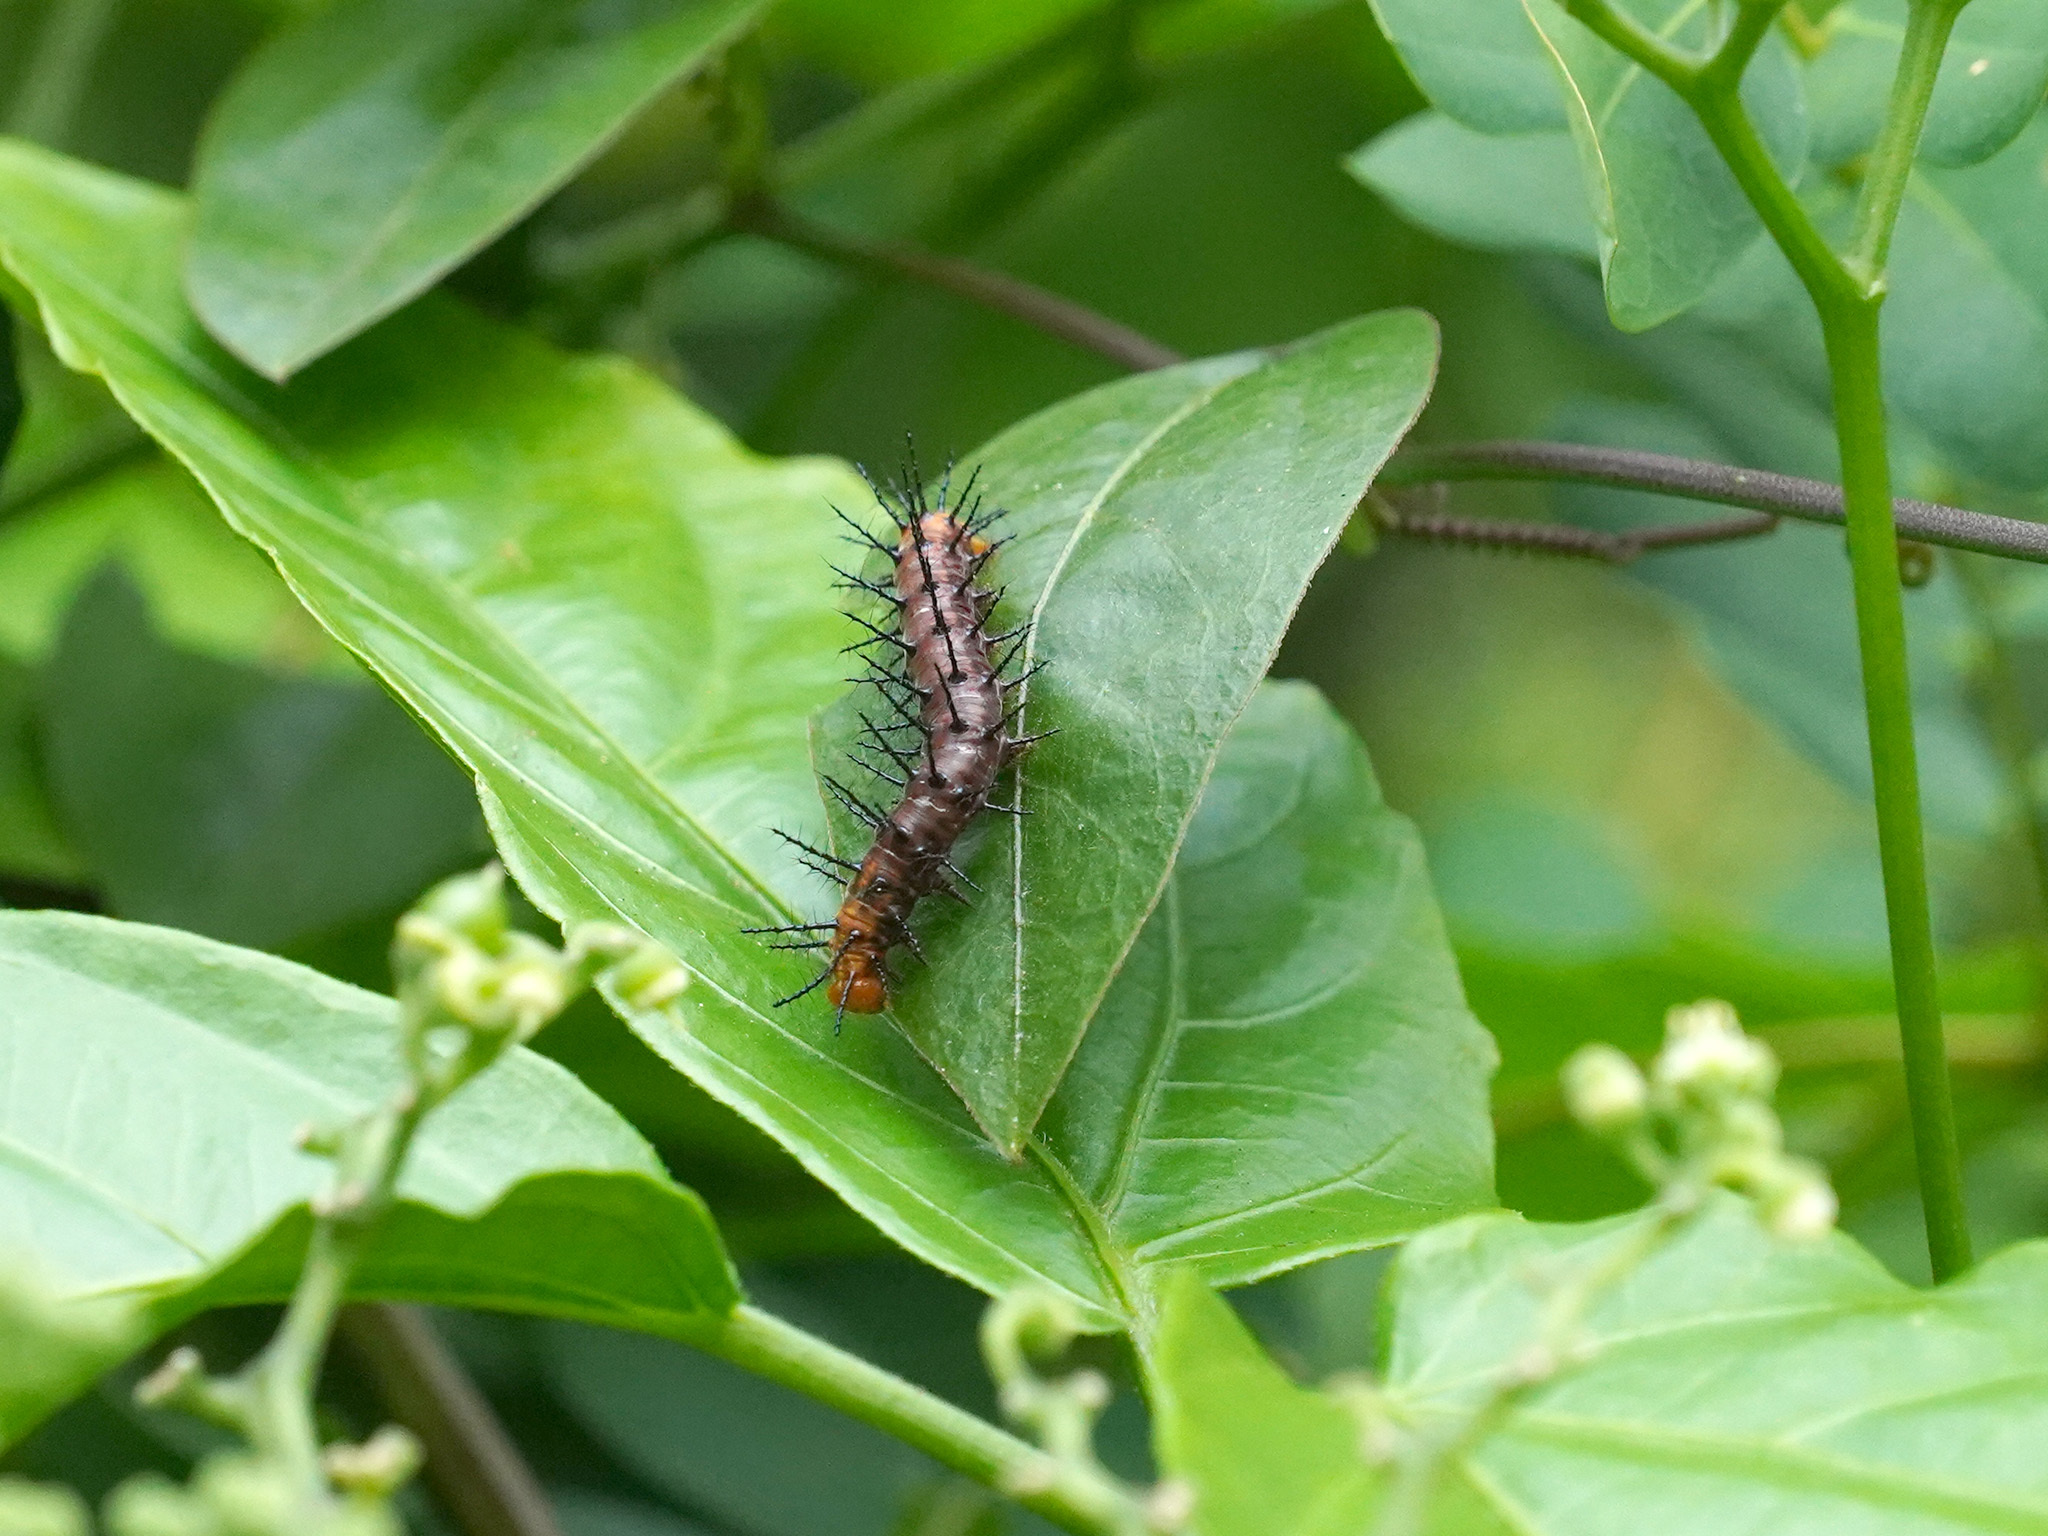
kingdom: Animalia
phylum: Arthropoda
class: Insecta
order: Lepidoptera
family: Nymphalidae
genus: Acraea
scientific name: Acraea terpsicore
